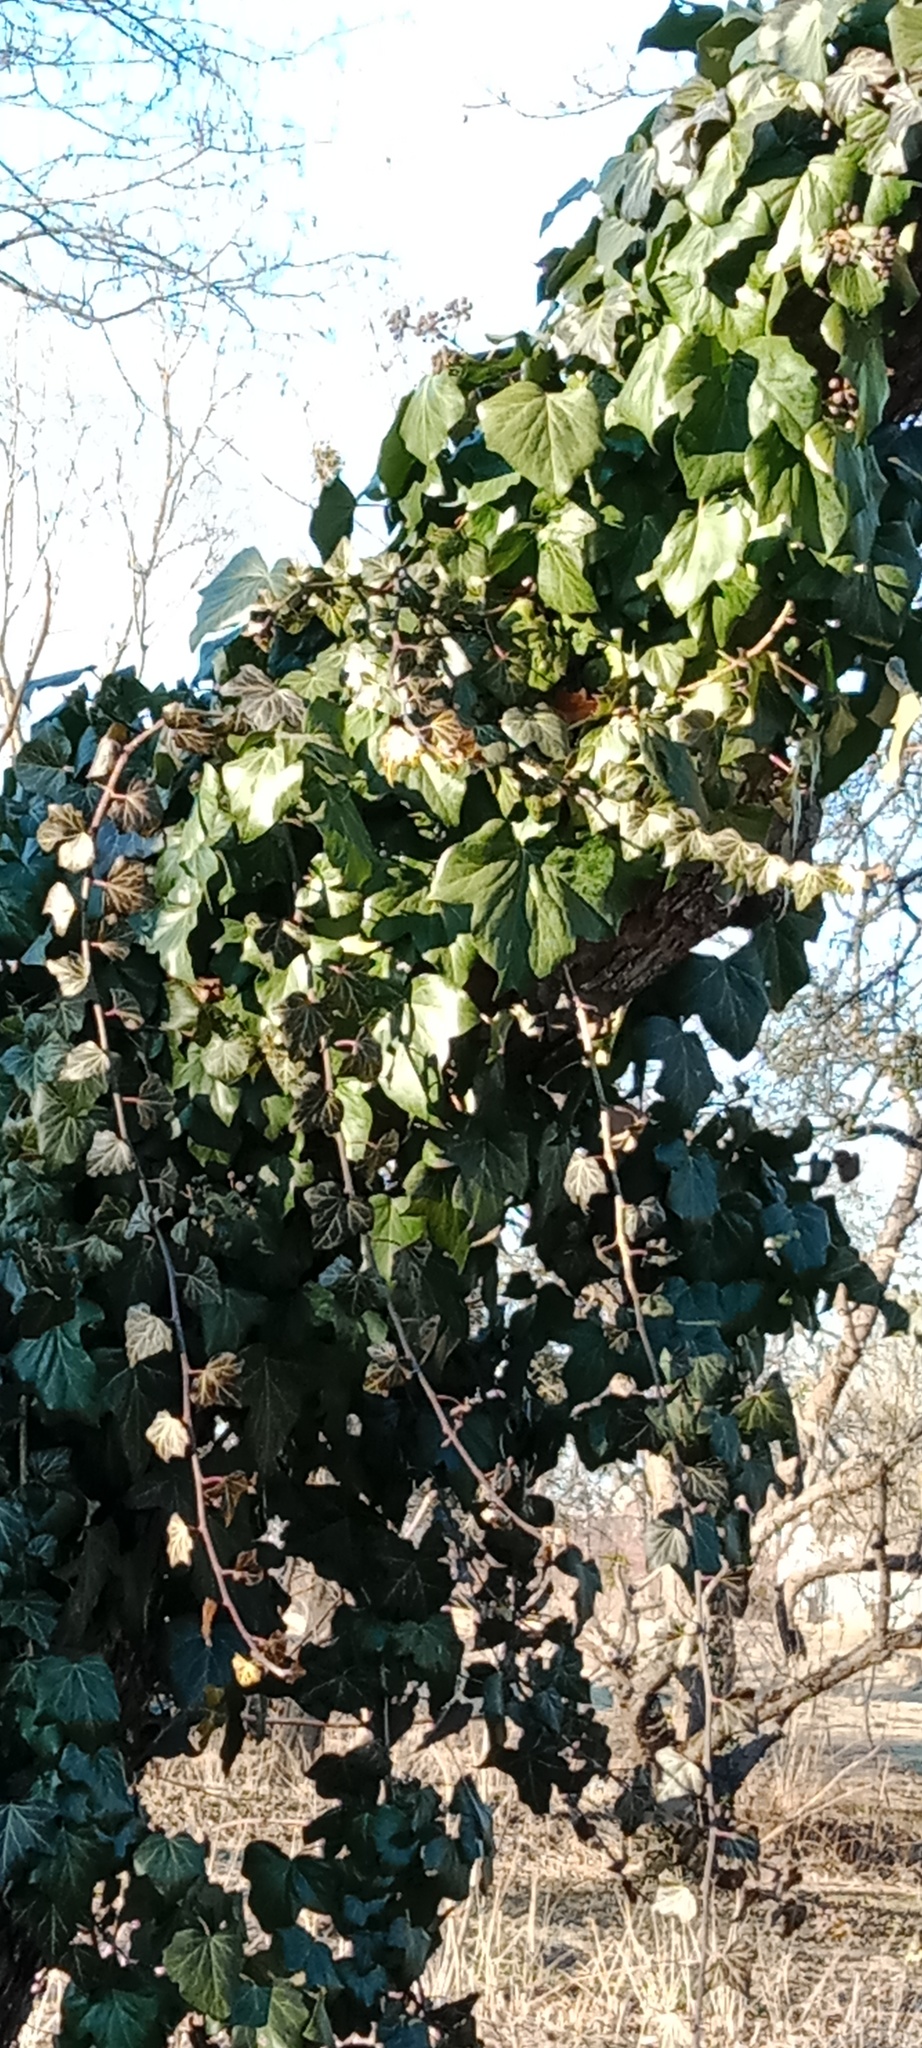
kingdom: Plantae
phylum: Tracheophyta
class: Magnoliopsida
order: Apiales
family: Araliaceae
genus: Hedera
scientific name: Hedera helix
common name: Ivy
